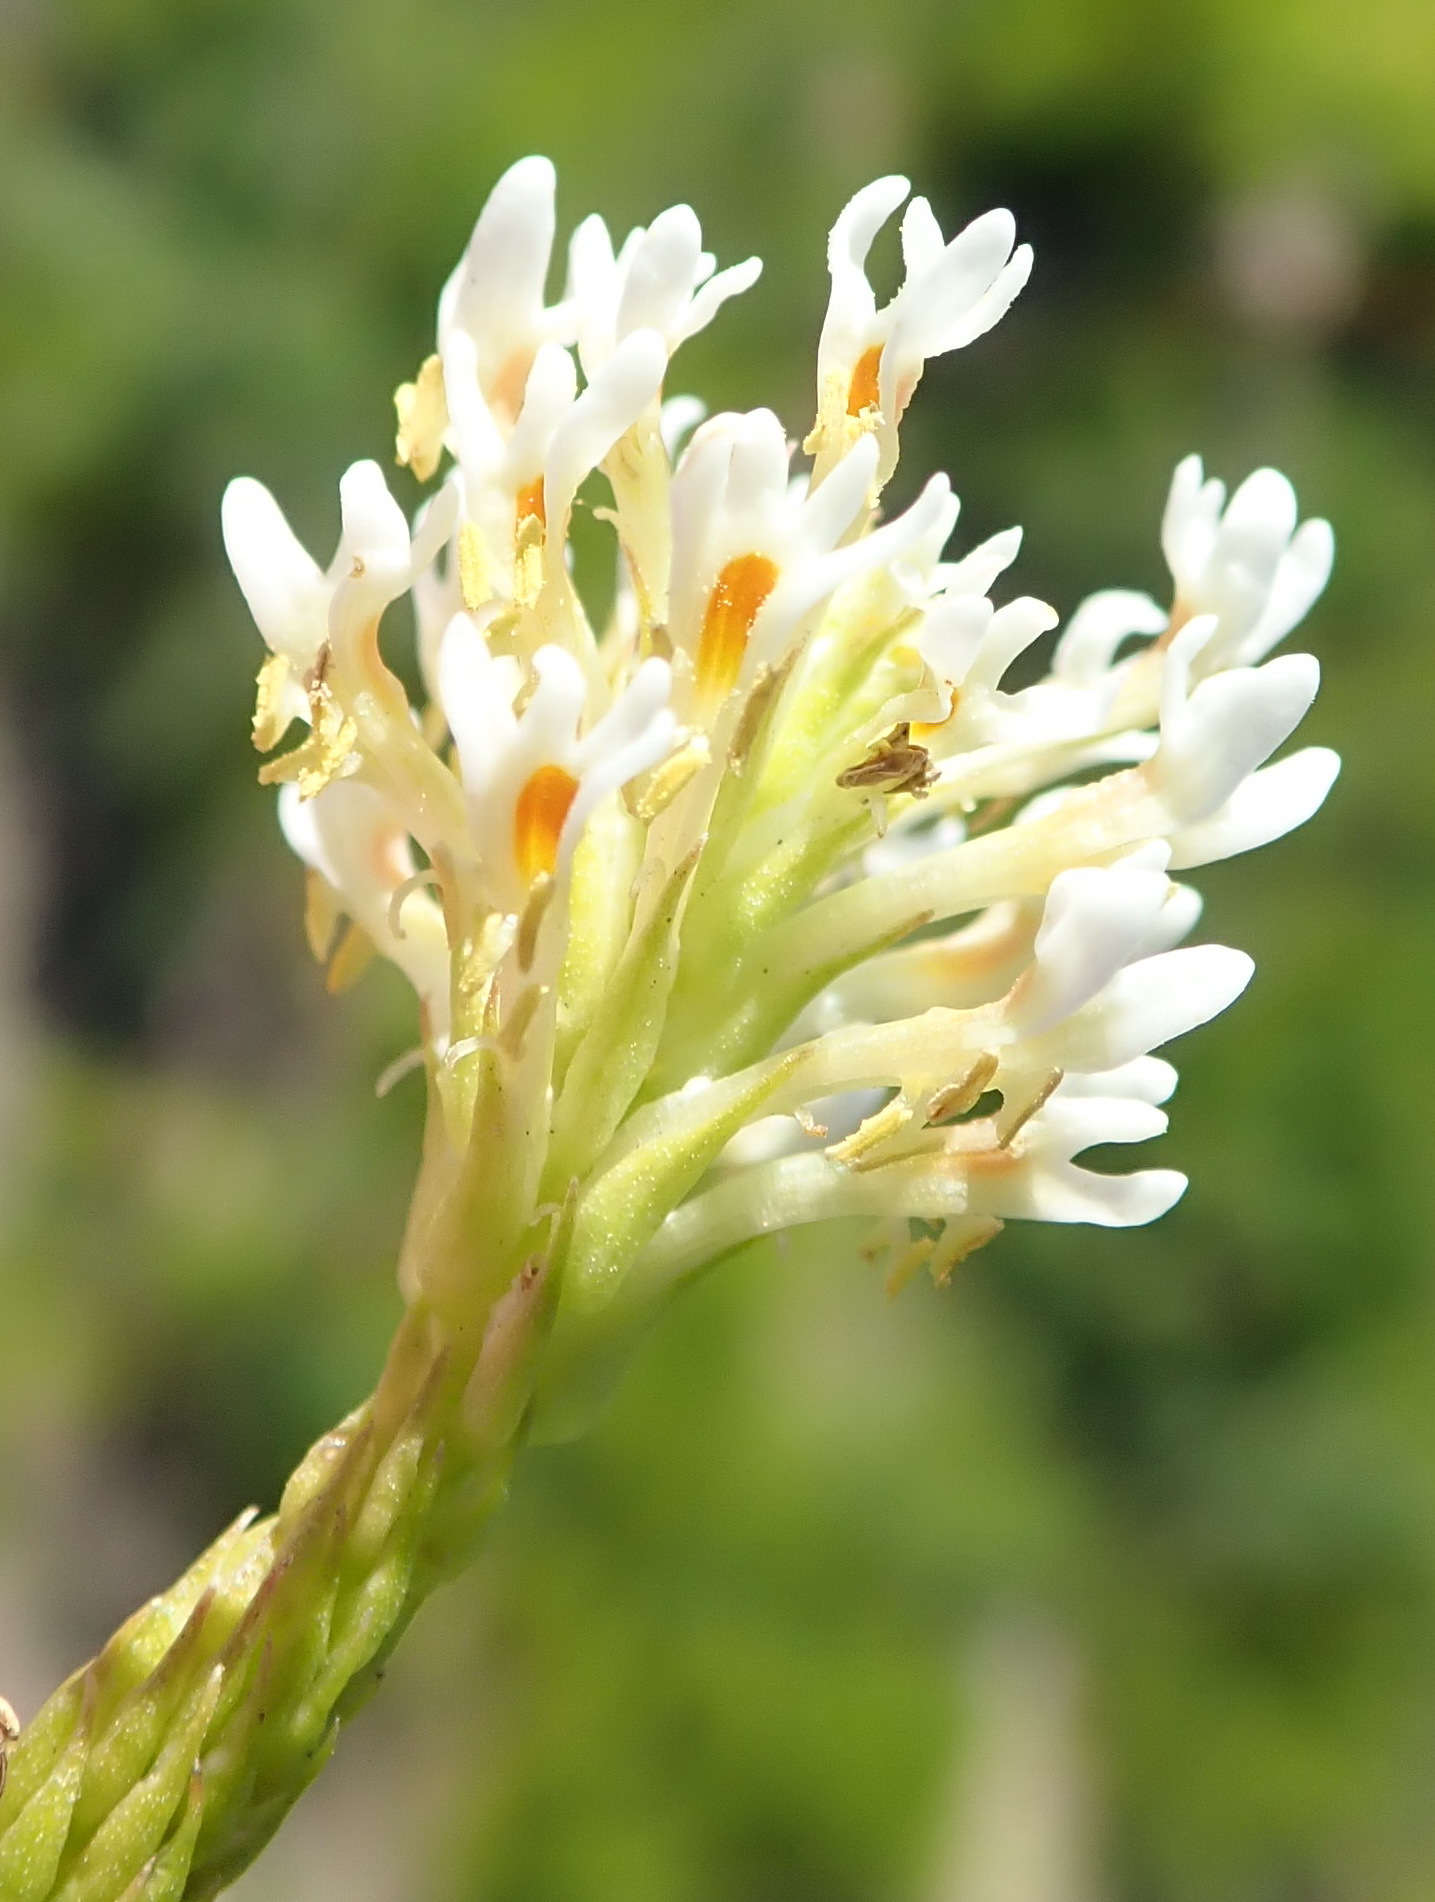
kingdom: Plantae
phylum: Tracheophyta
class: Magnoliopsida
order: Lamiales
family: Scrophulariaceae
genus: Hebenstretia
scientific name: Hebenstretia integrifolia
